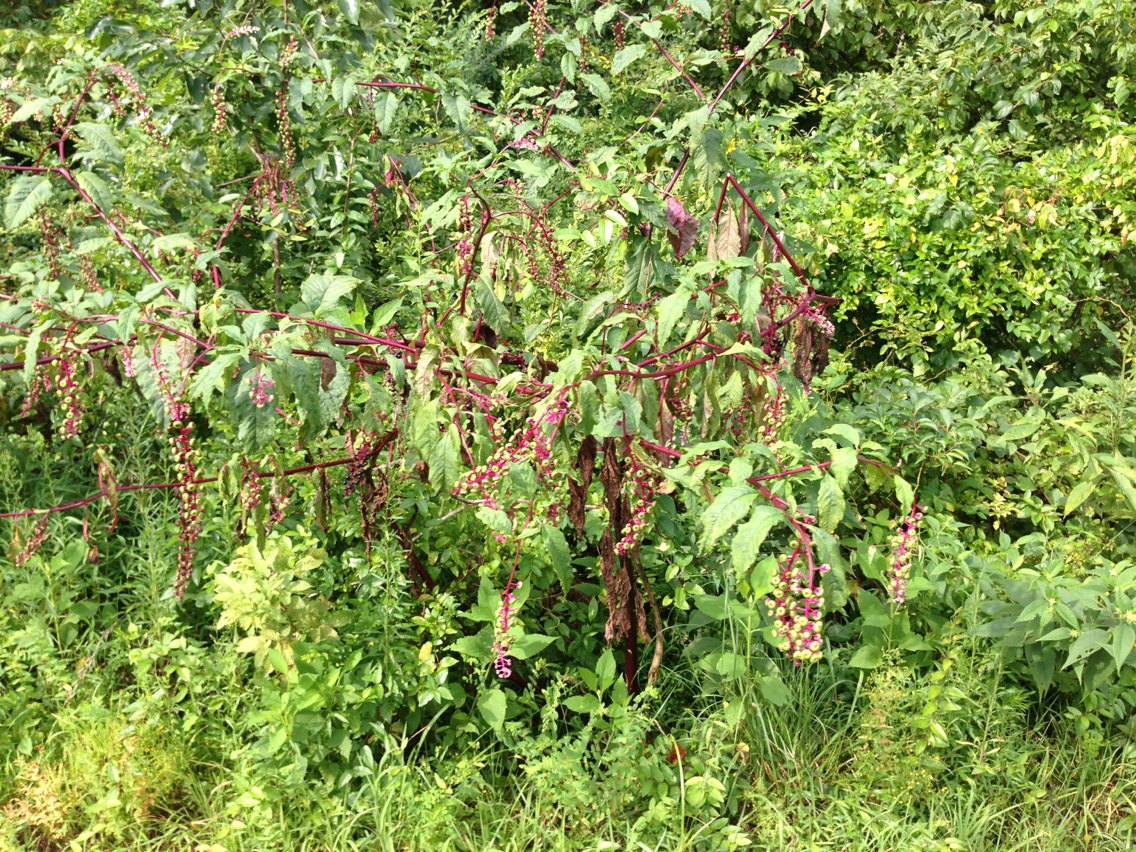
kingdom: Plantae
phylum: Tracheophyta
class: Magnoliopsida
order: Caryophyllales
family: Phytolaccaceae
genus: Phytolacca
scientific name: Phytolacca americana
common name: American pokeweed
